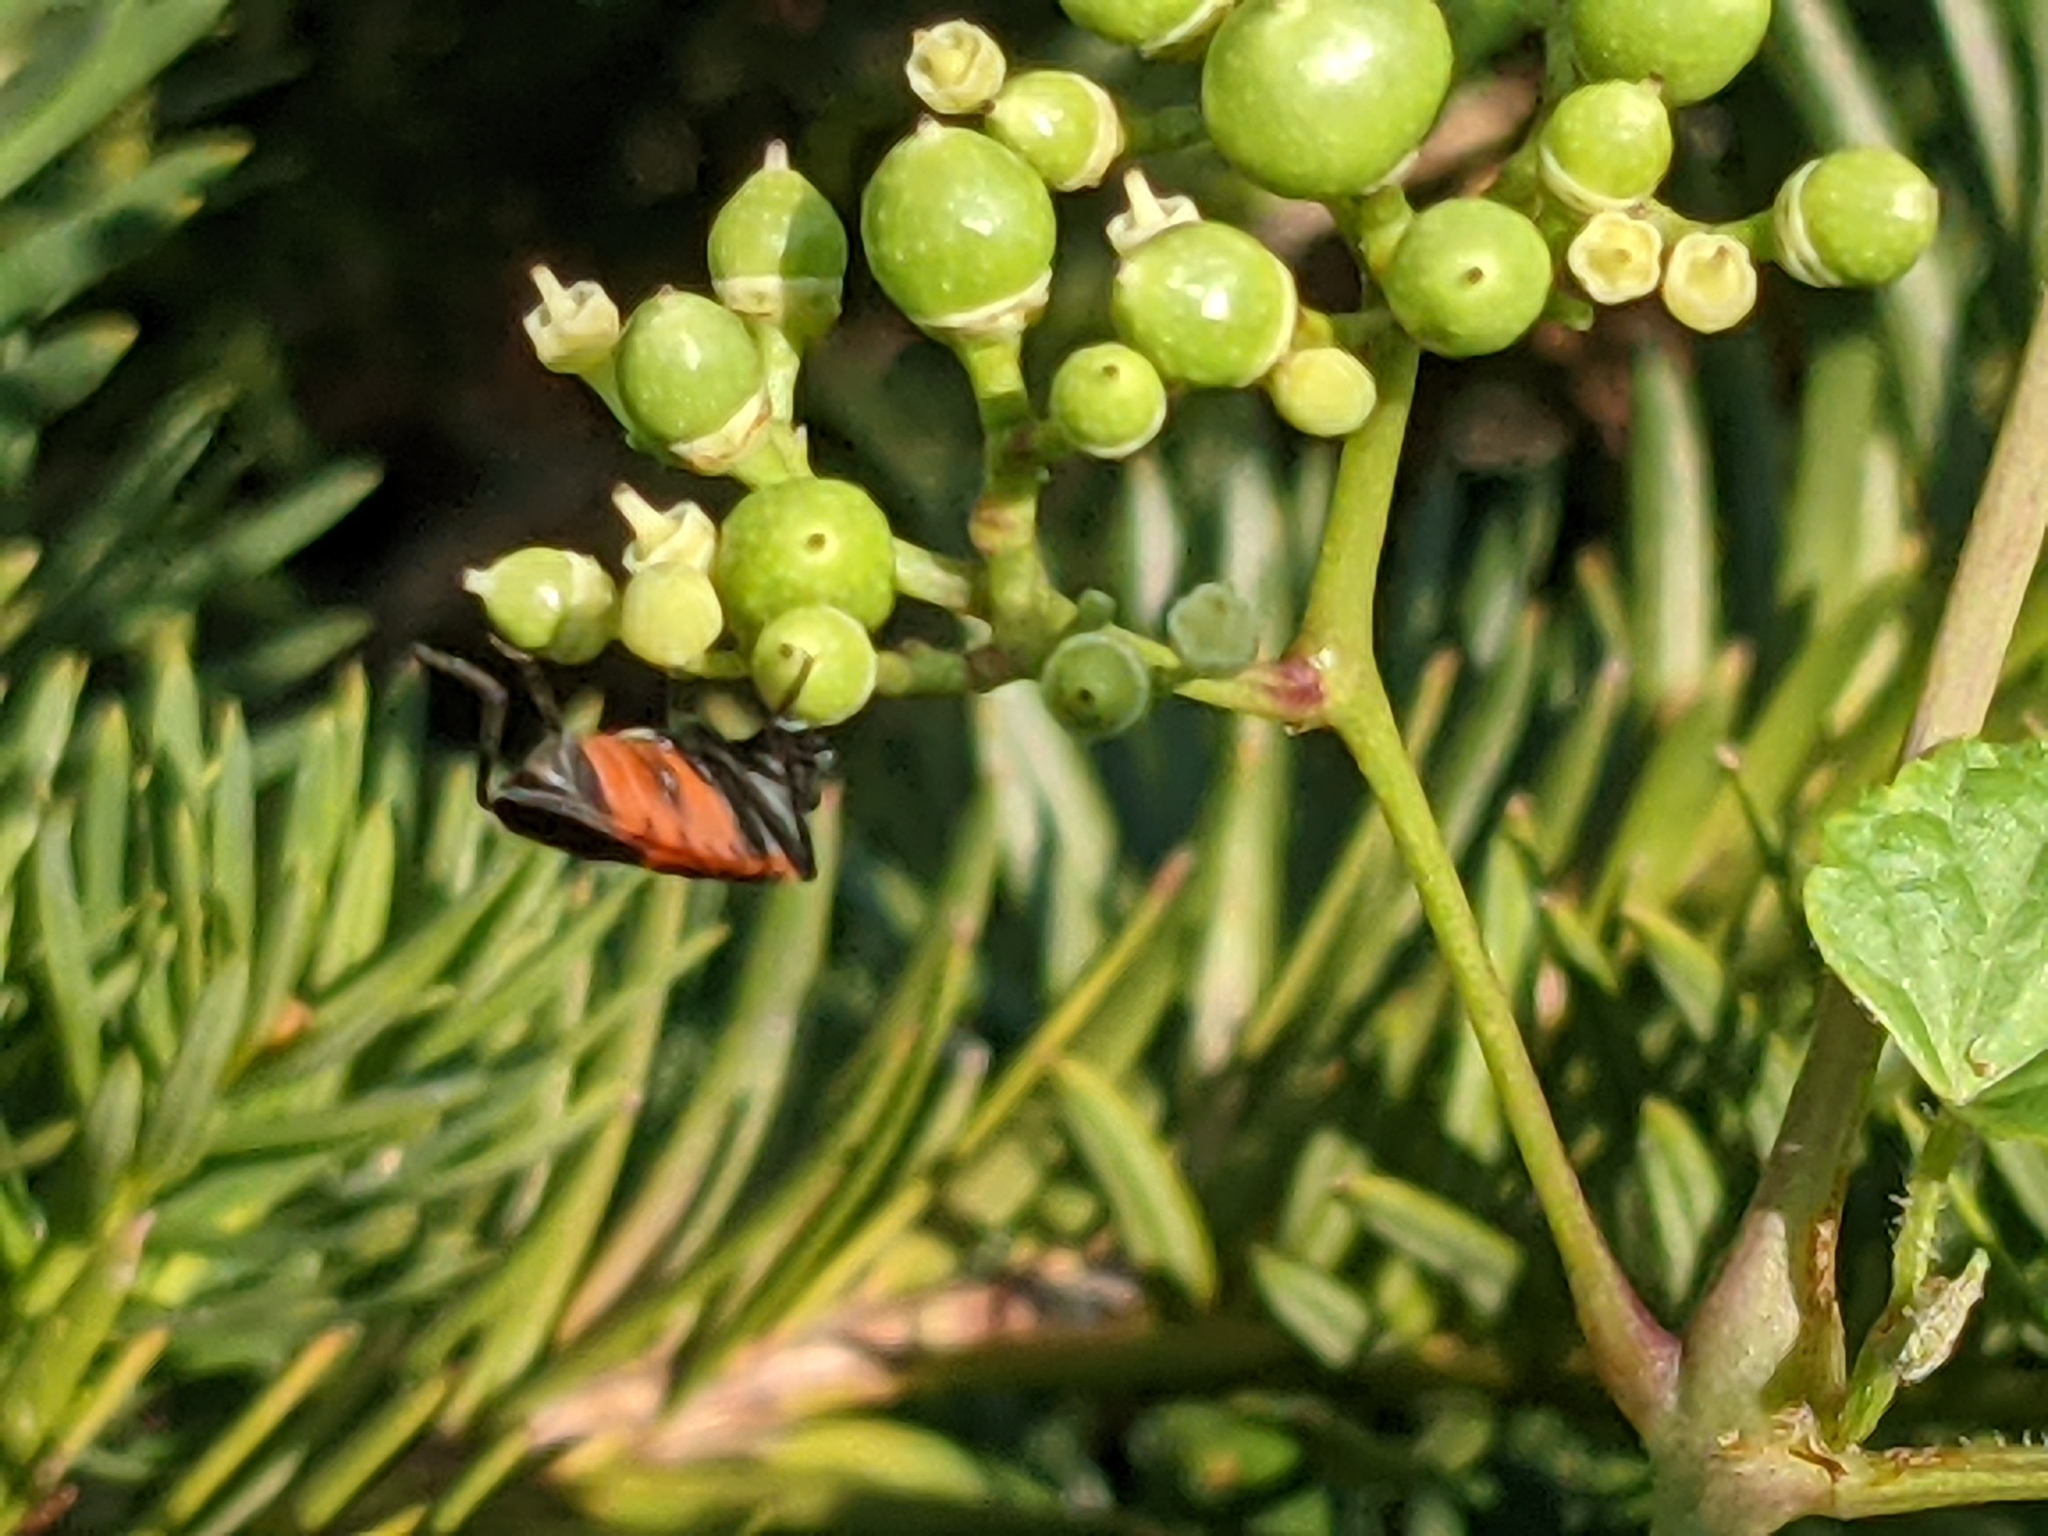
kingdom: Animalia
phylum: Arthropoda
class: Insecta
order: Hemiptera
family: Lygaeidae
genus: Lygaeus
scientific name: Lygaeus kalmii
